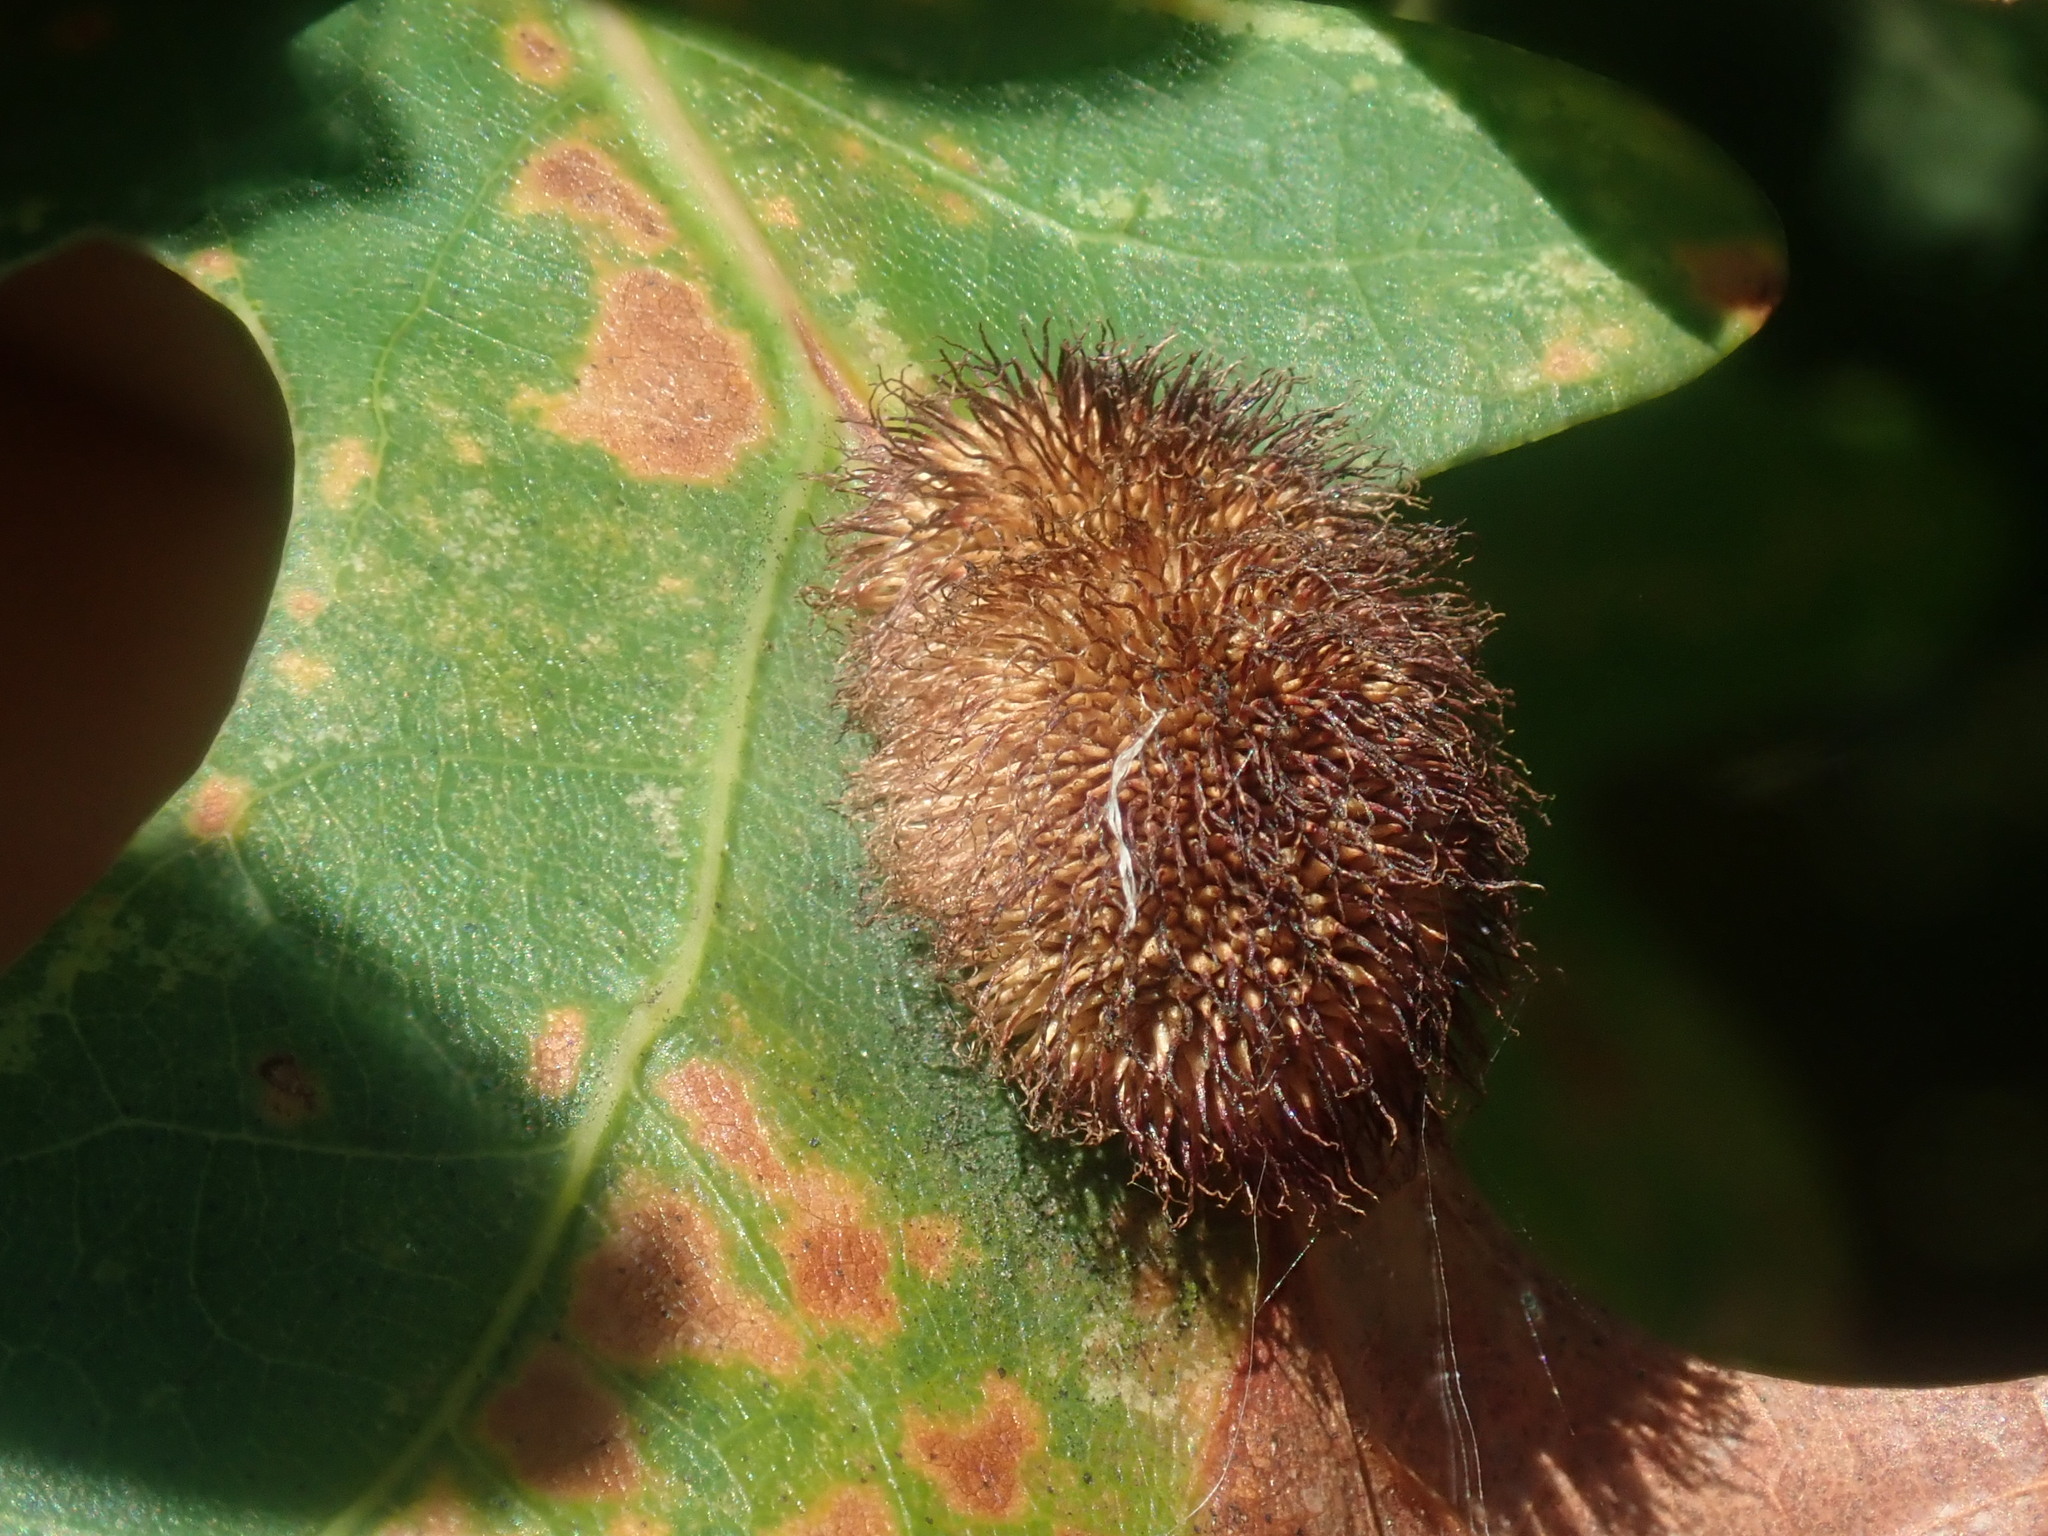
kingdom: Animalia
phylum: Arthropoda
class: Insecta
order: Hymenoptera
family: Cynipidae
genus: Acraspis
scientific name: Acraspis erinacei
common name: Hedgehog gall wasp
